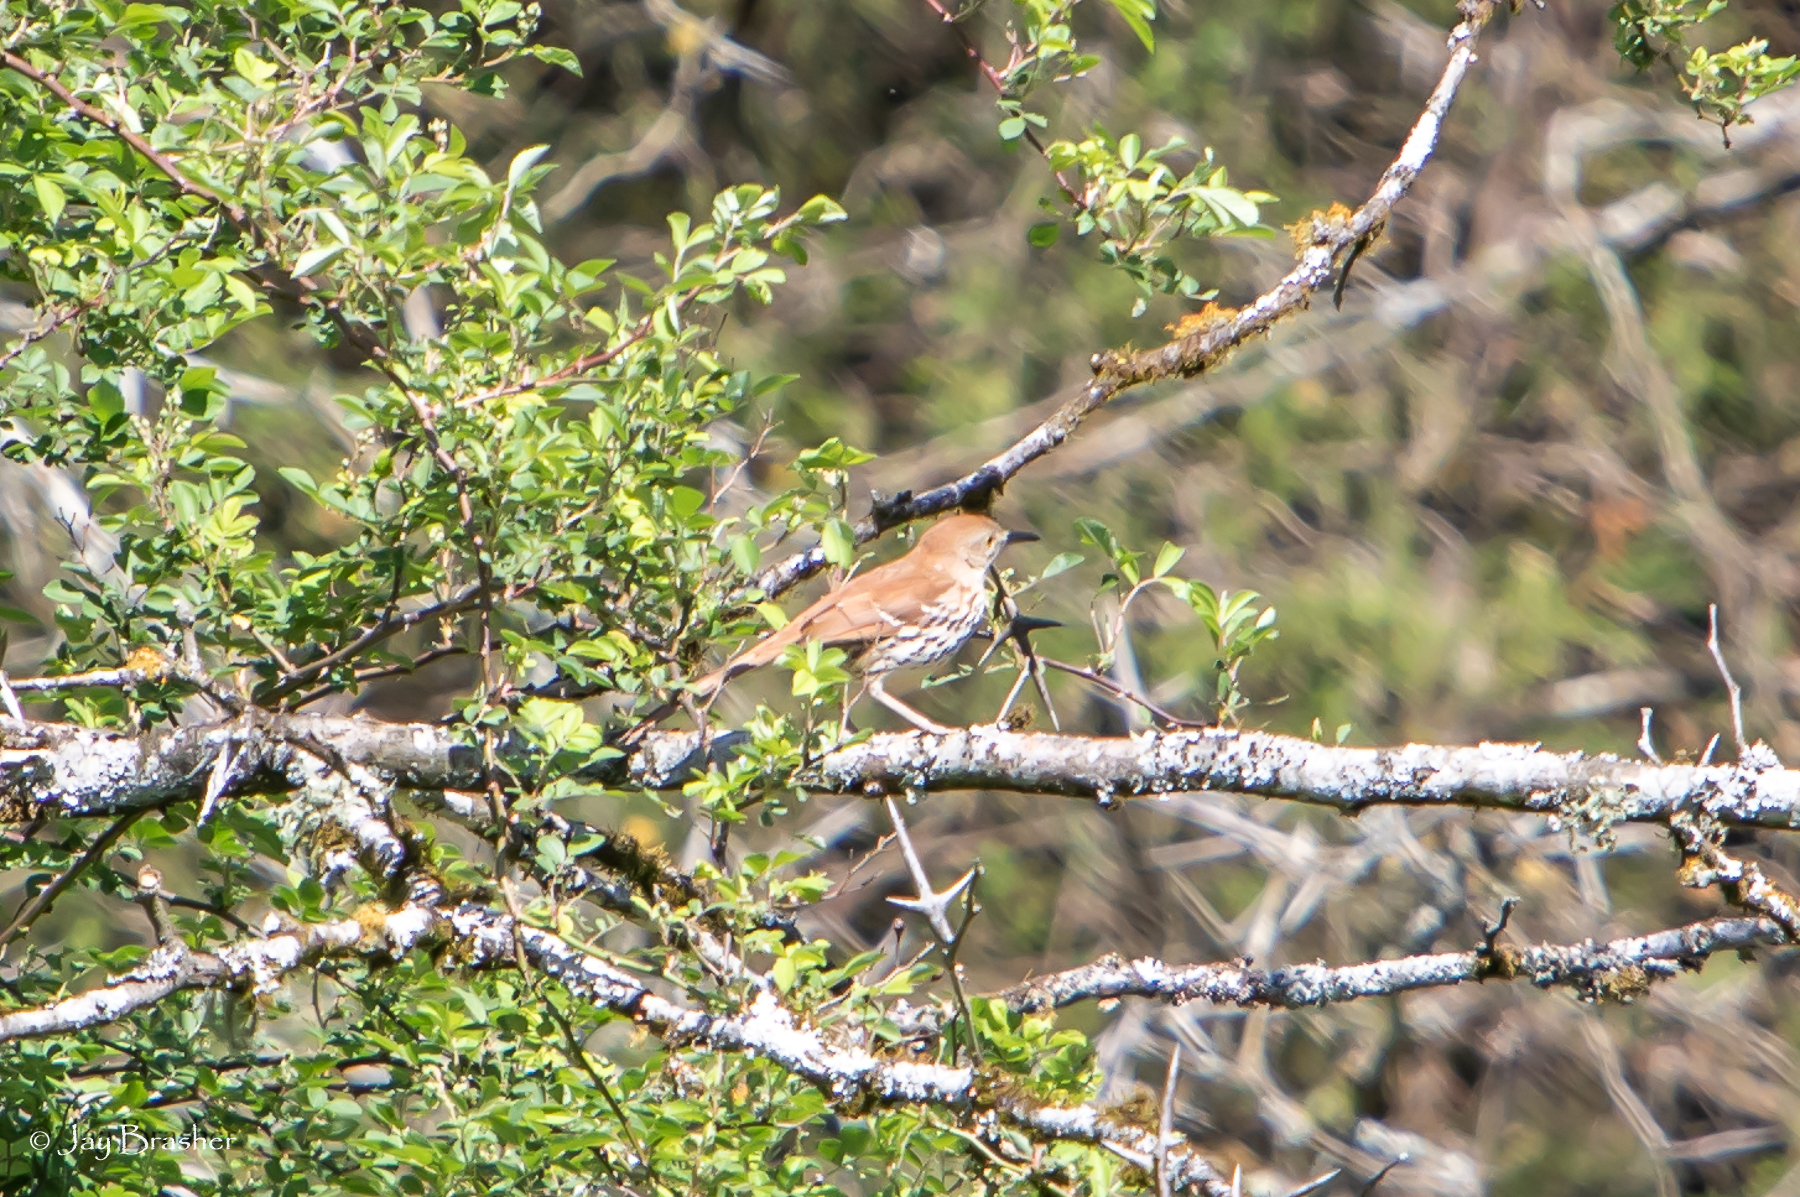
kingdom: Animalia
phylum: Chordata
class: Aves
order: Passeriformes
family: Mimidae
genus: Toxostoma
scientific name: Toxostoma rufum
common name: Brown thrasher
